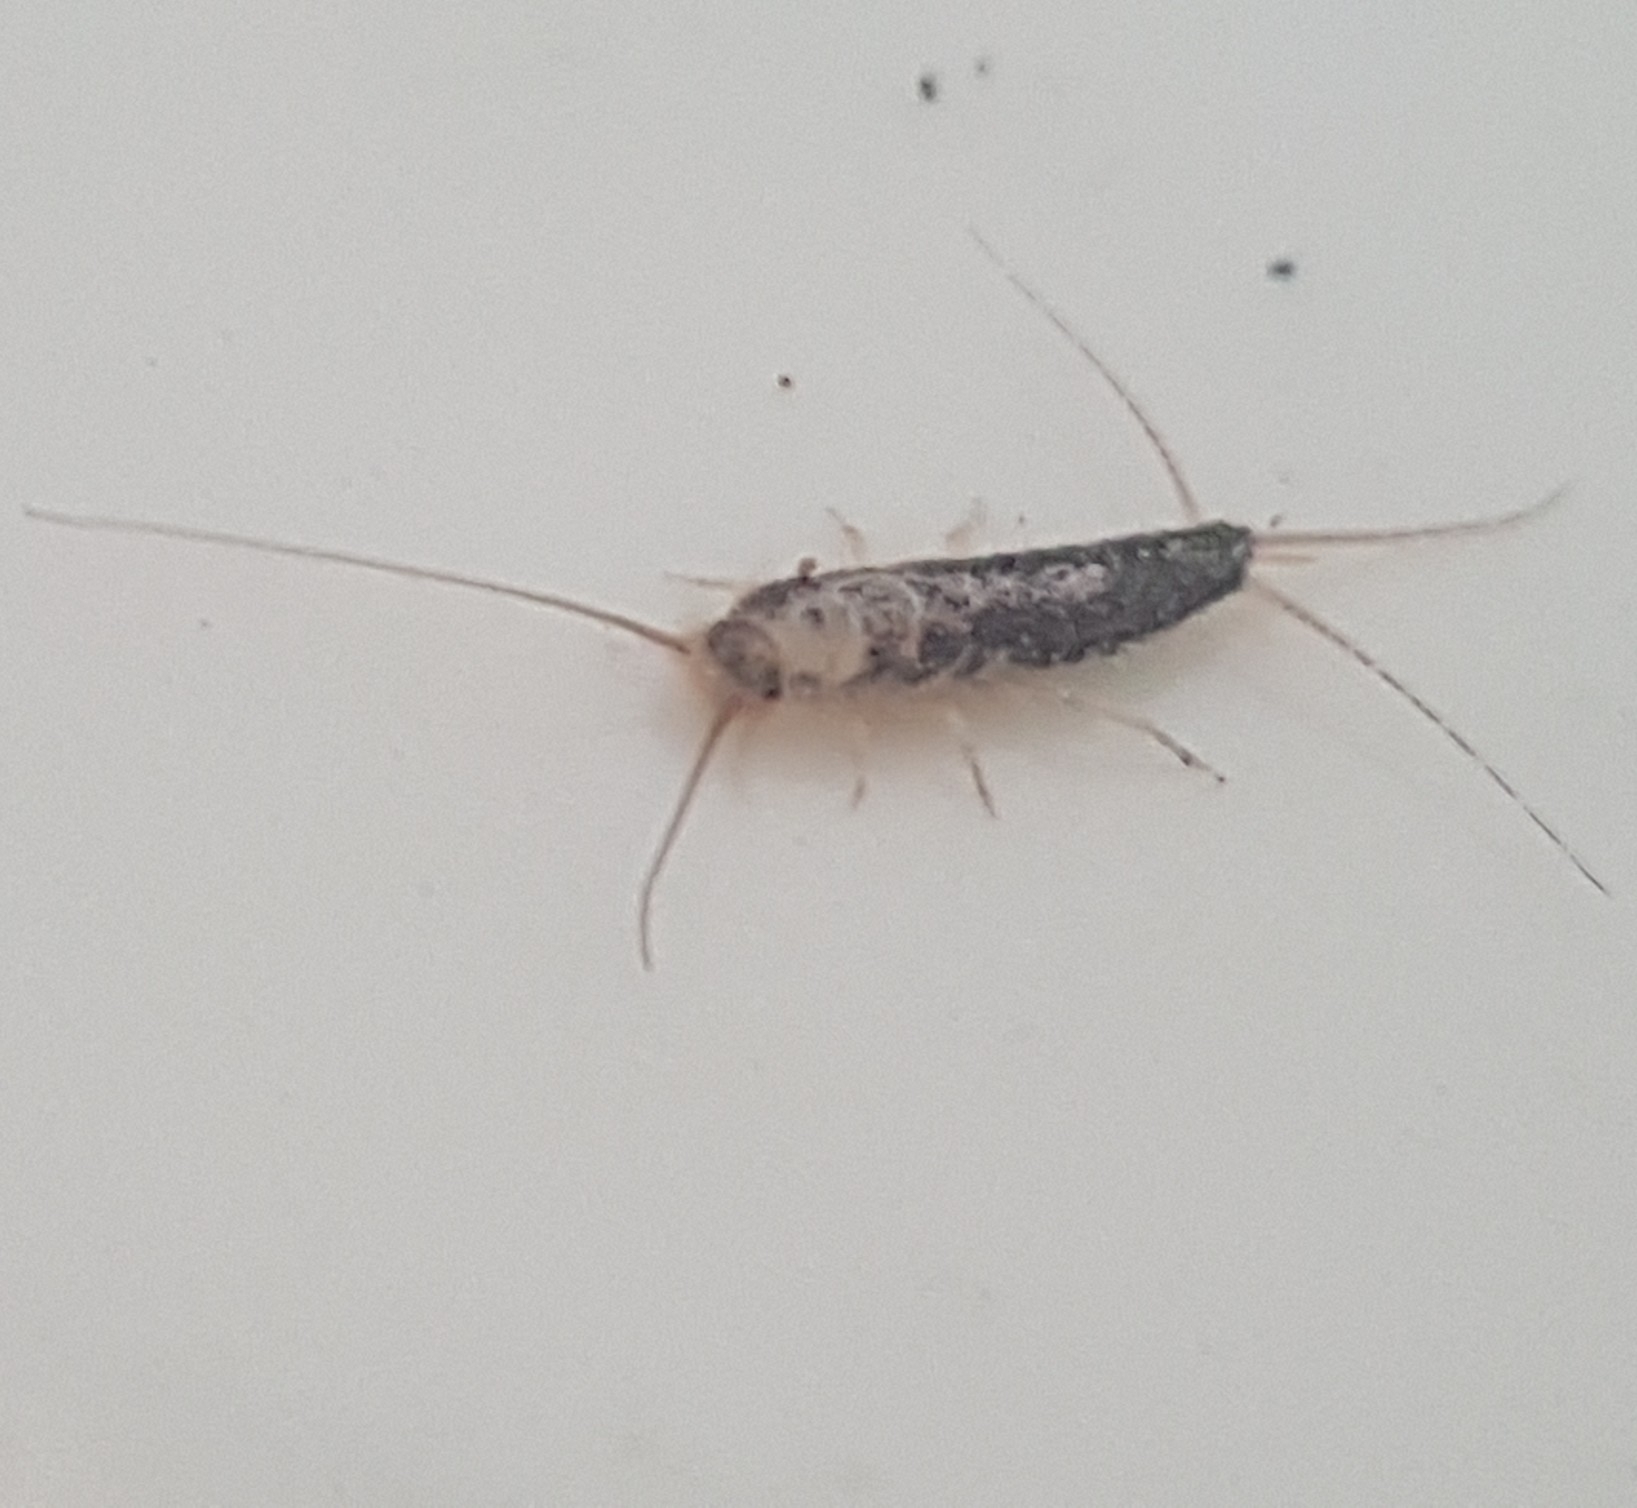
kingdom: Animalia
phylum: Arthropoda
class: Insecta
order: Zygentoma
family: Lepismatidae
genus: Ctenolepisma
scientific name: Ctenolepisma longicaudatum
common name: Silverfish
